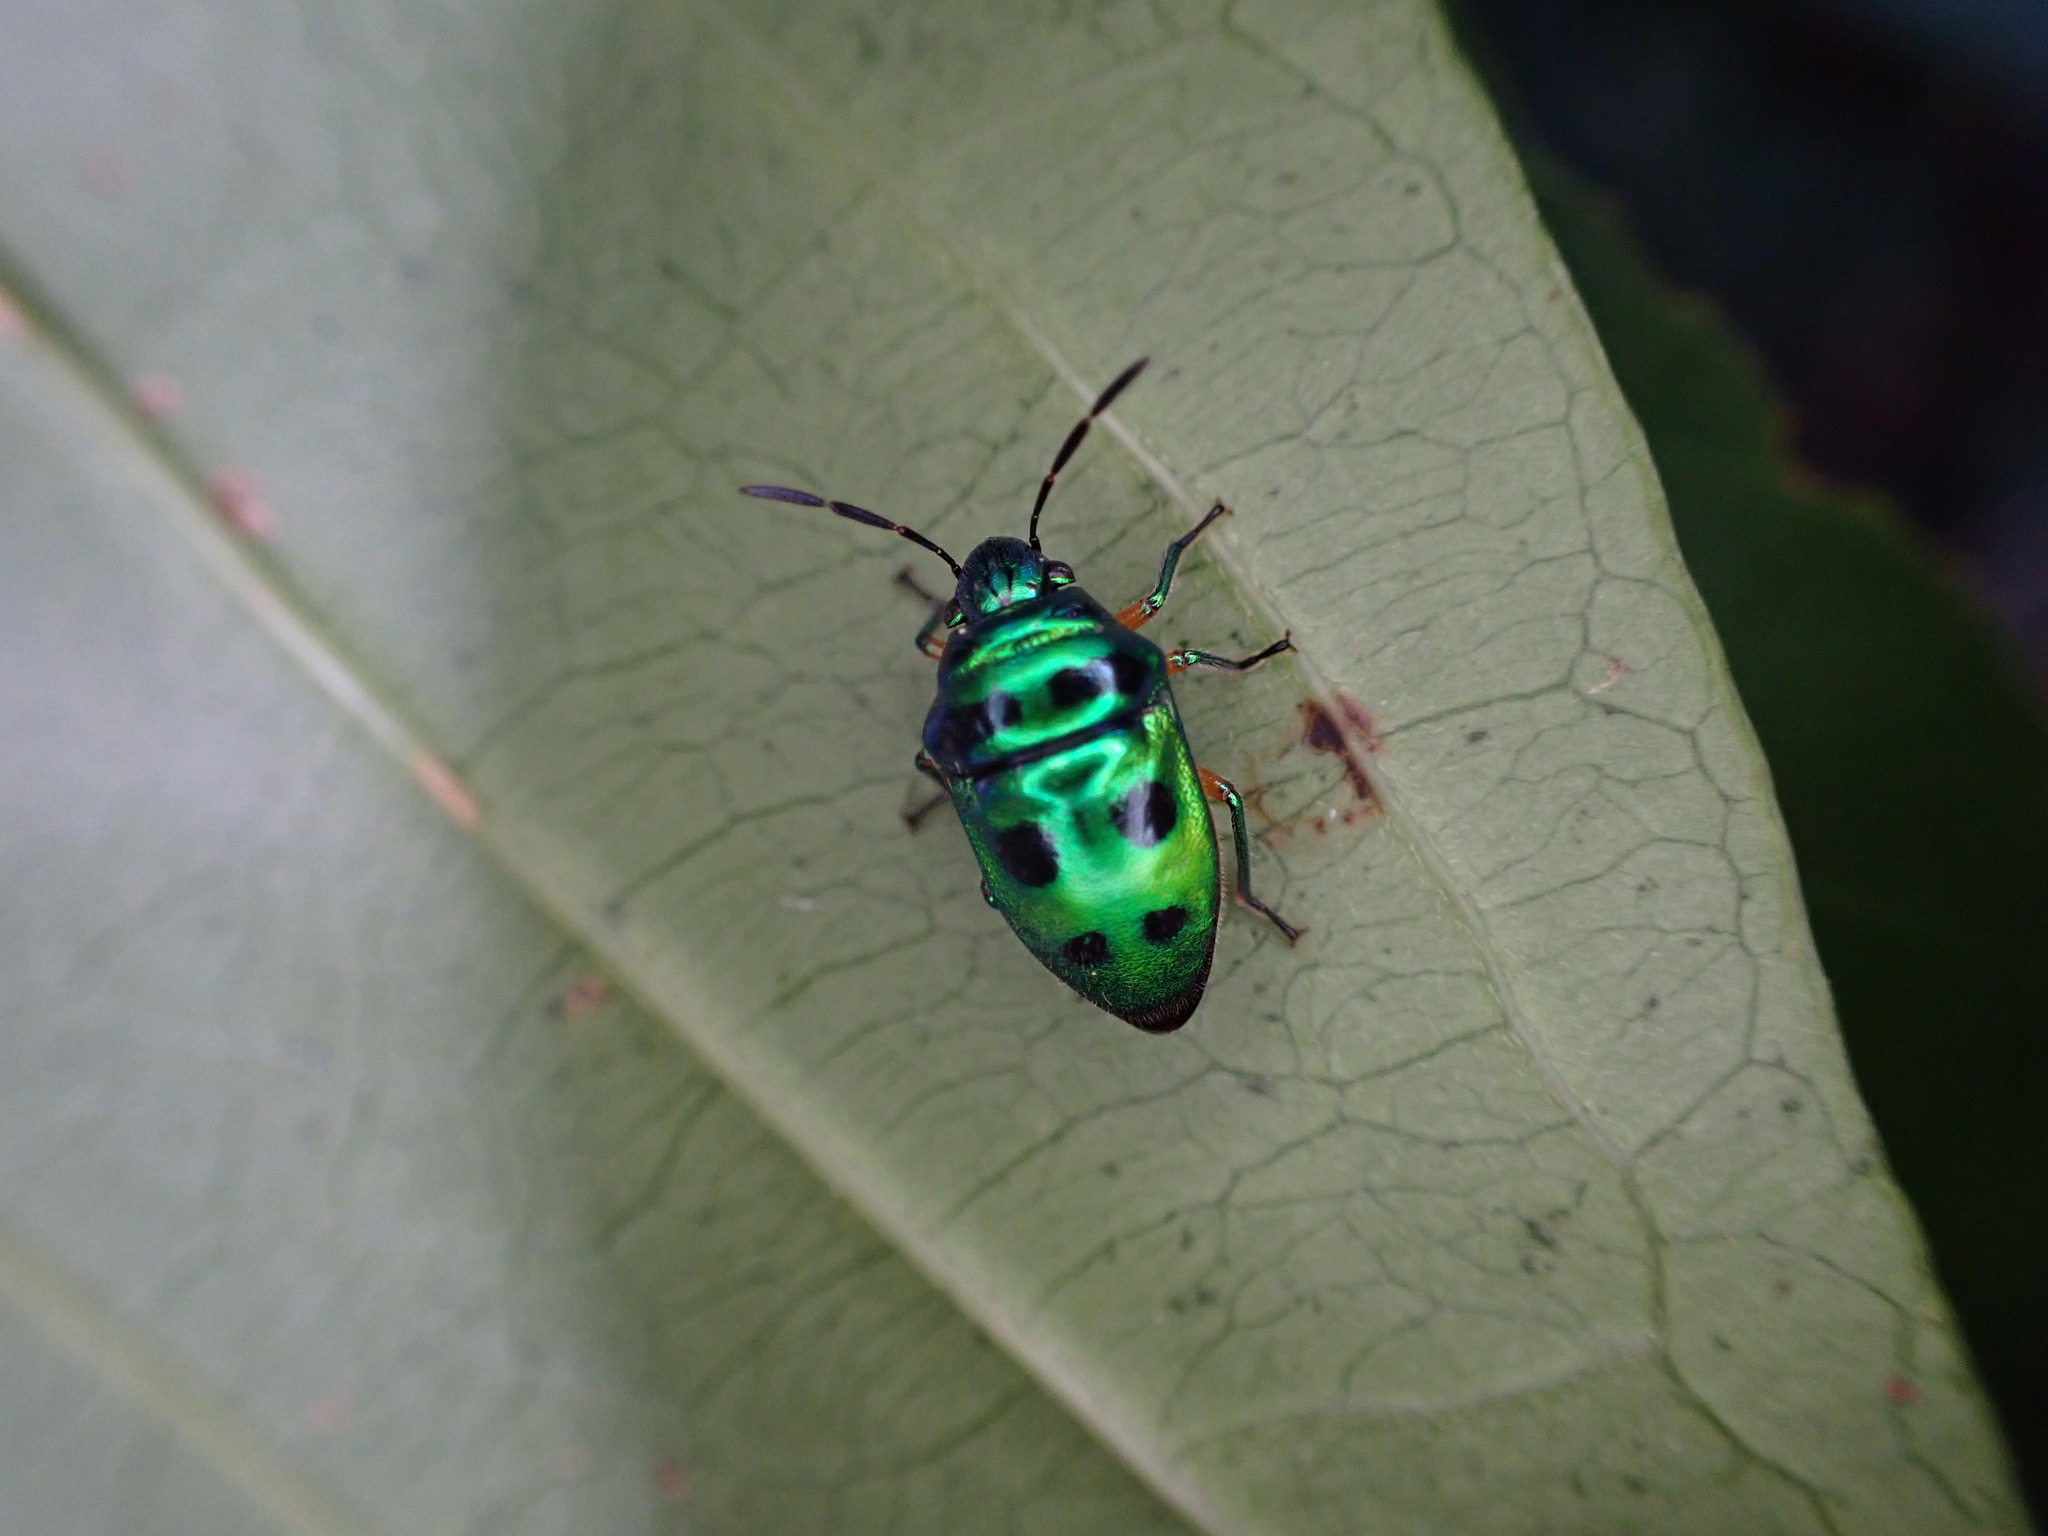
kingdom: Animalia
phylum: Arthropoda
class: Insecta
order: Hemiptera
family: Scutelleridae
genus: Lampromicra
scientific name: Lampromicra miyakona
